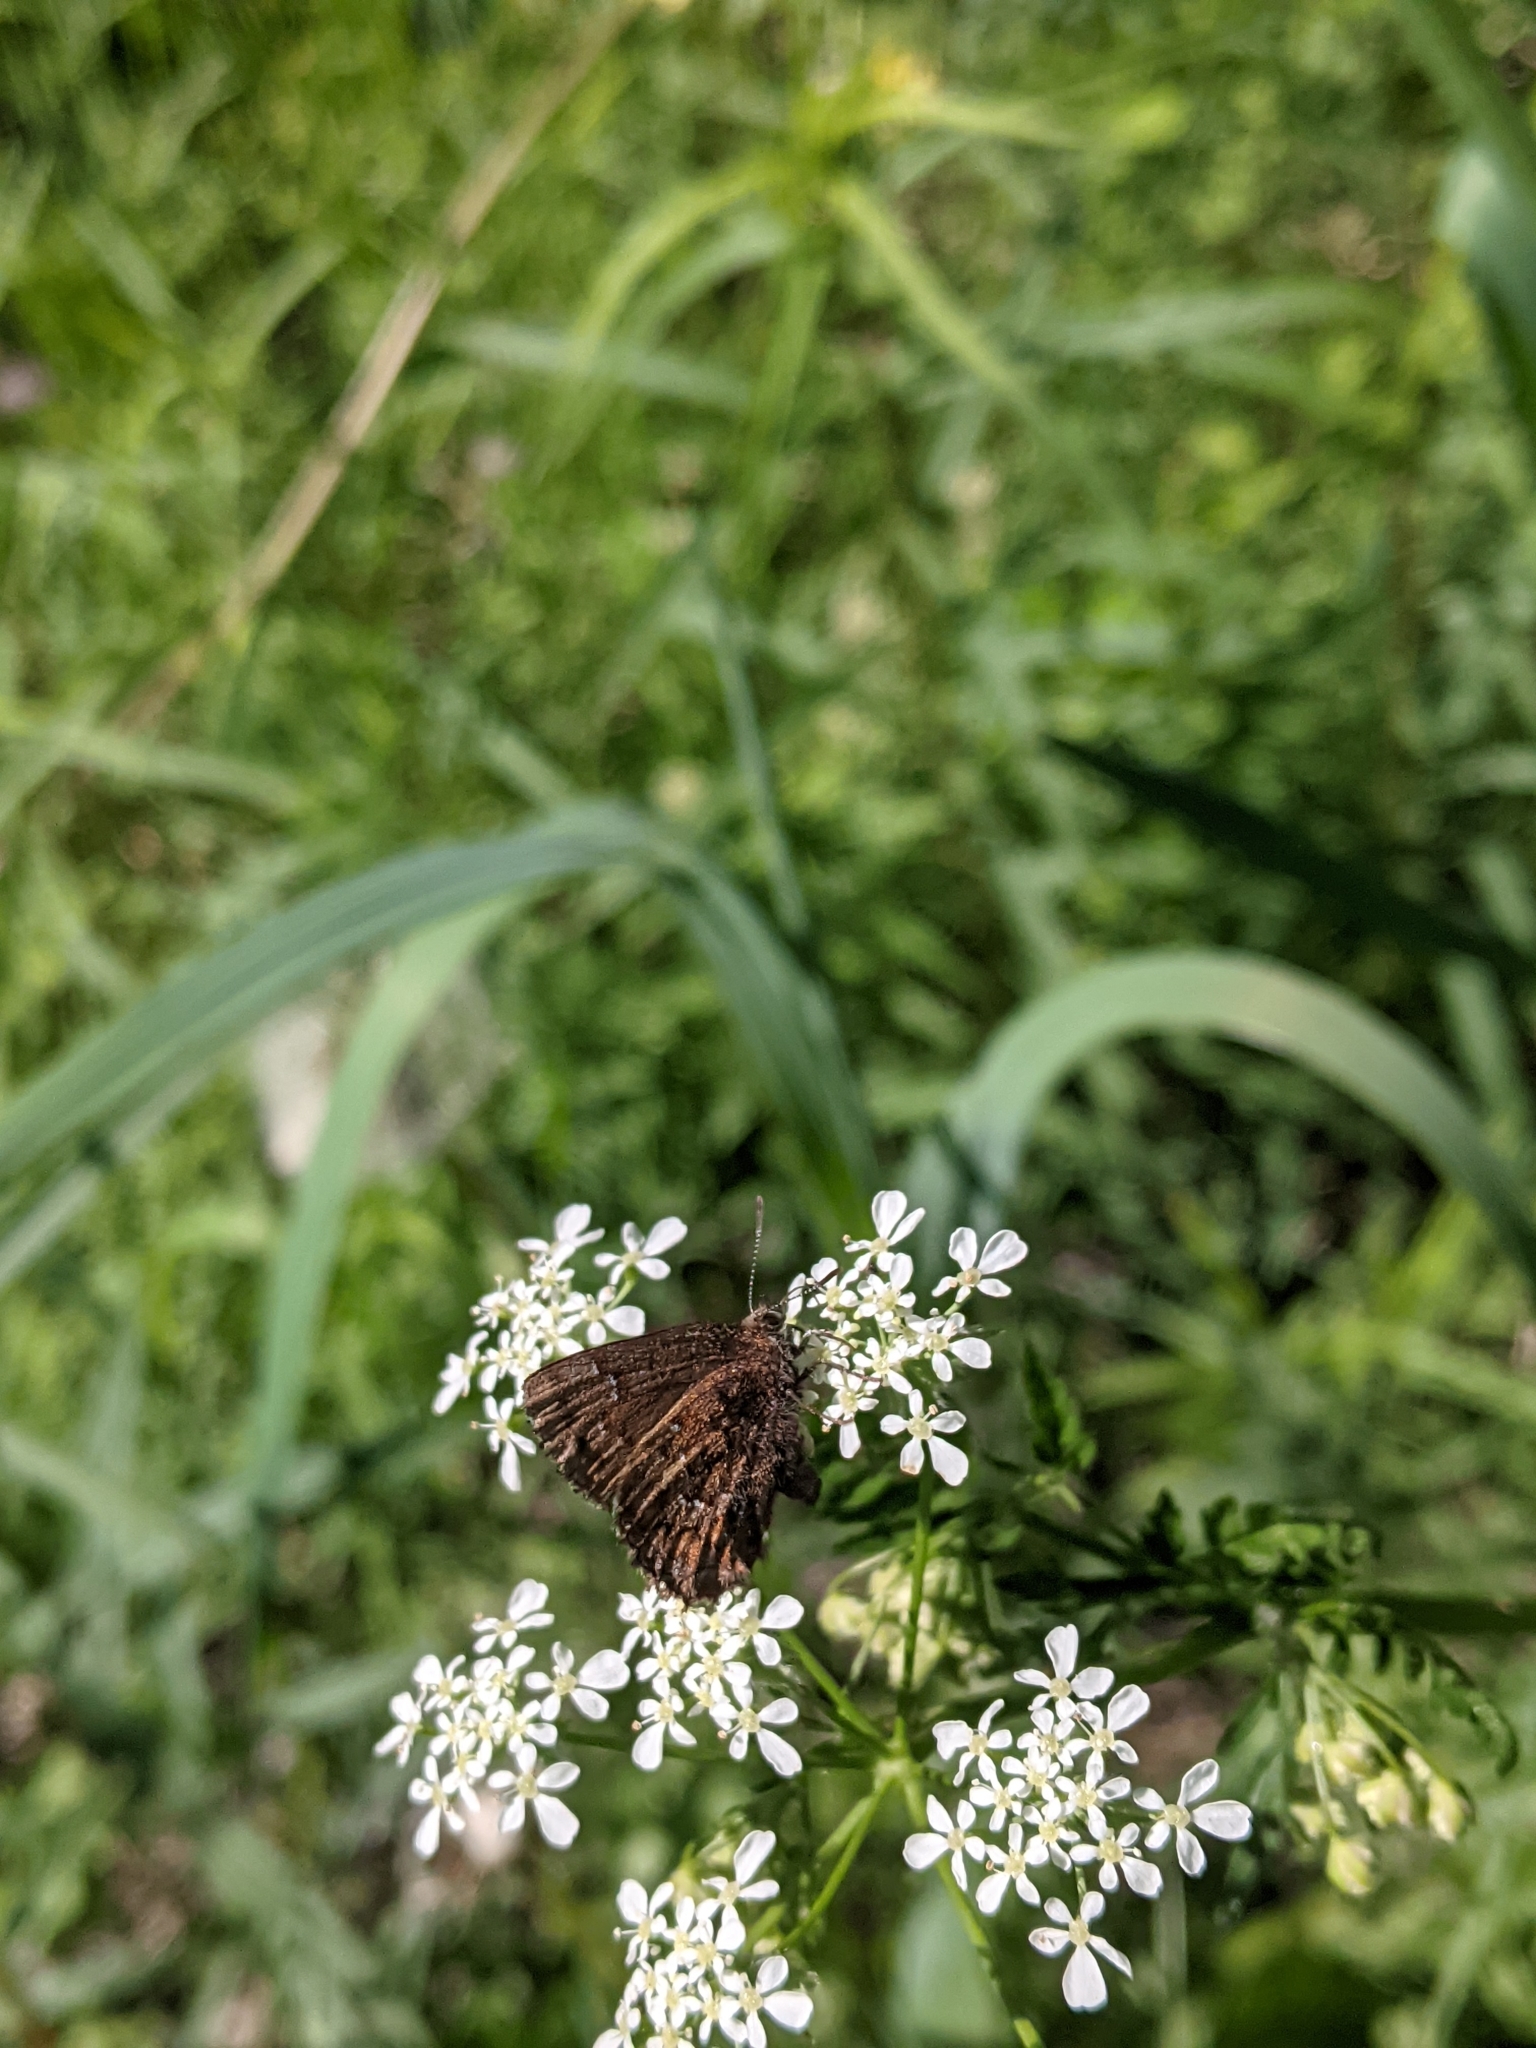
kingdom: Animalia
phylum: Arthropoda
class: Insecta
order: Lepidoptera
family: Lycaenidae
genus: Incisalia
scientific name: Incisalia niphon
